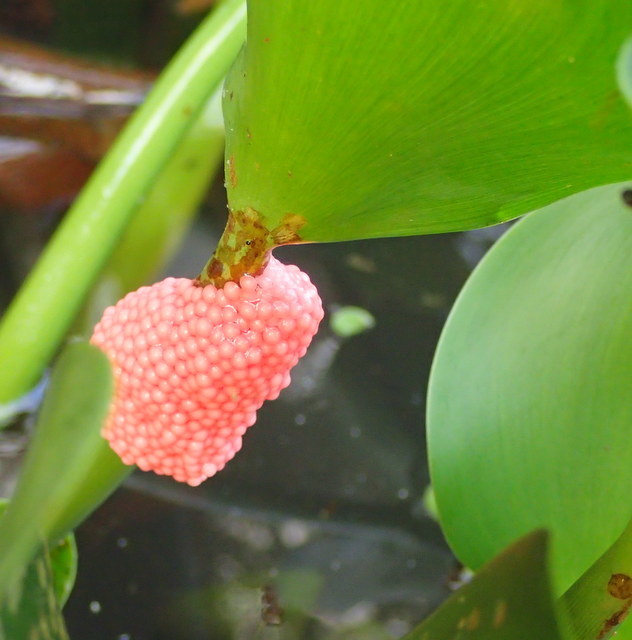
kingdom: Animalia
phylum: Mollusca
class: Gastropoda
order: Architaenioglossa
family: Ampullariidae
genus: Pomacea
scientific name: Pomacea maculata
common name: Giant applesnail
